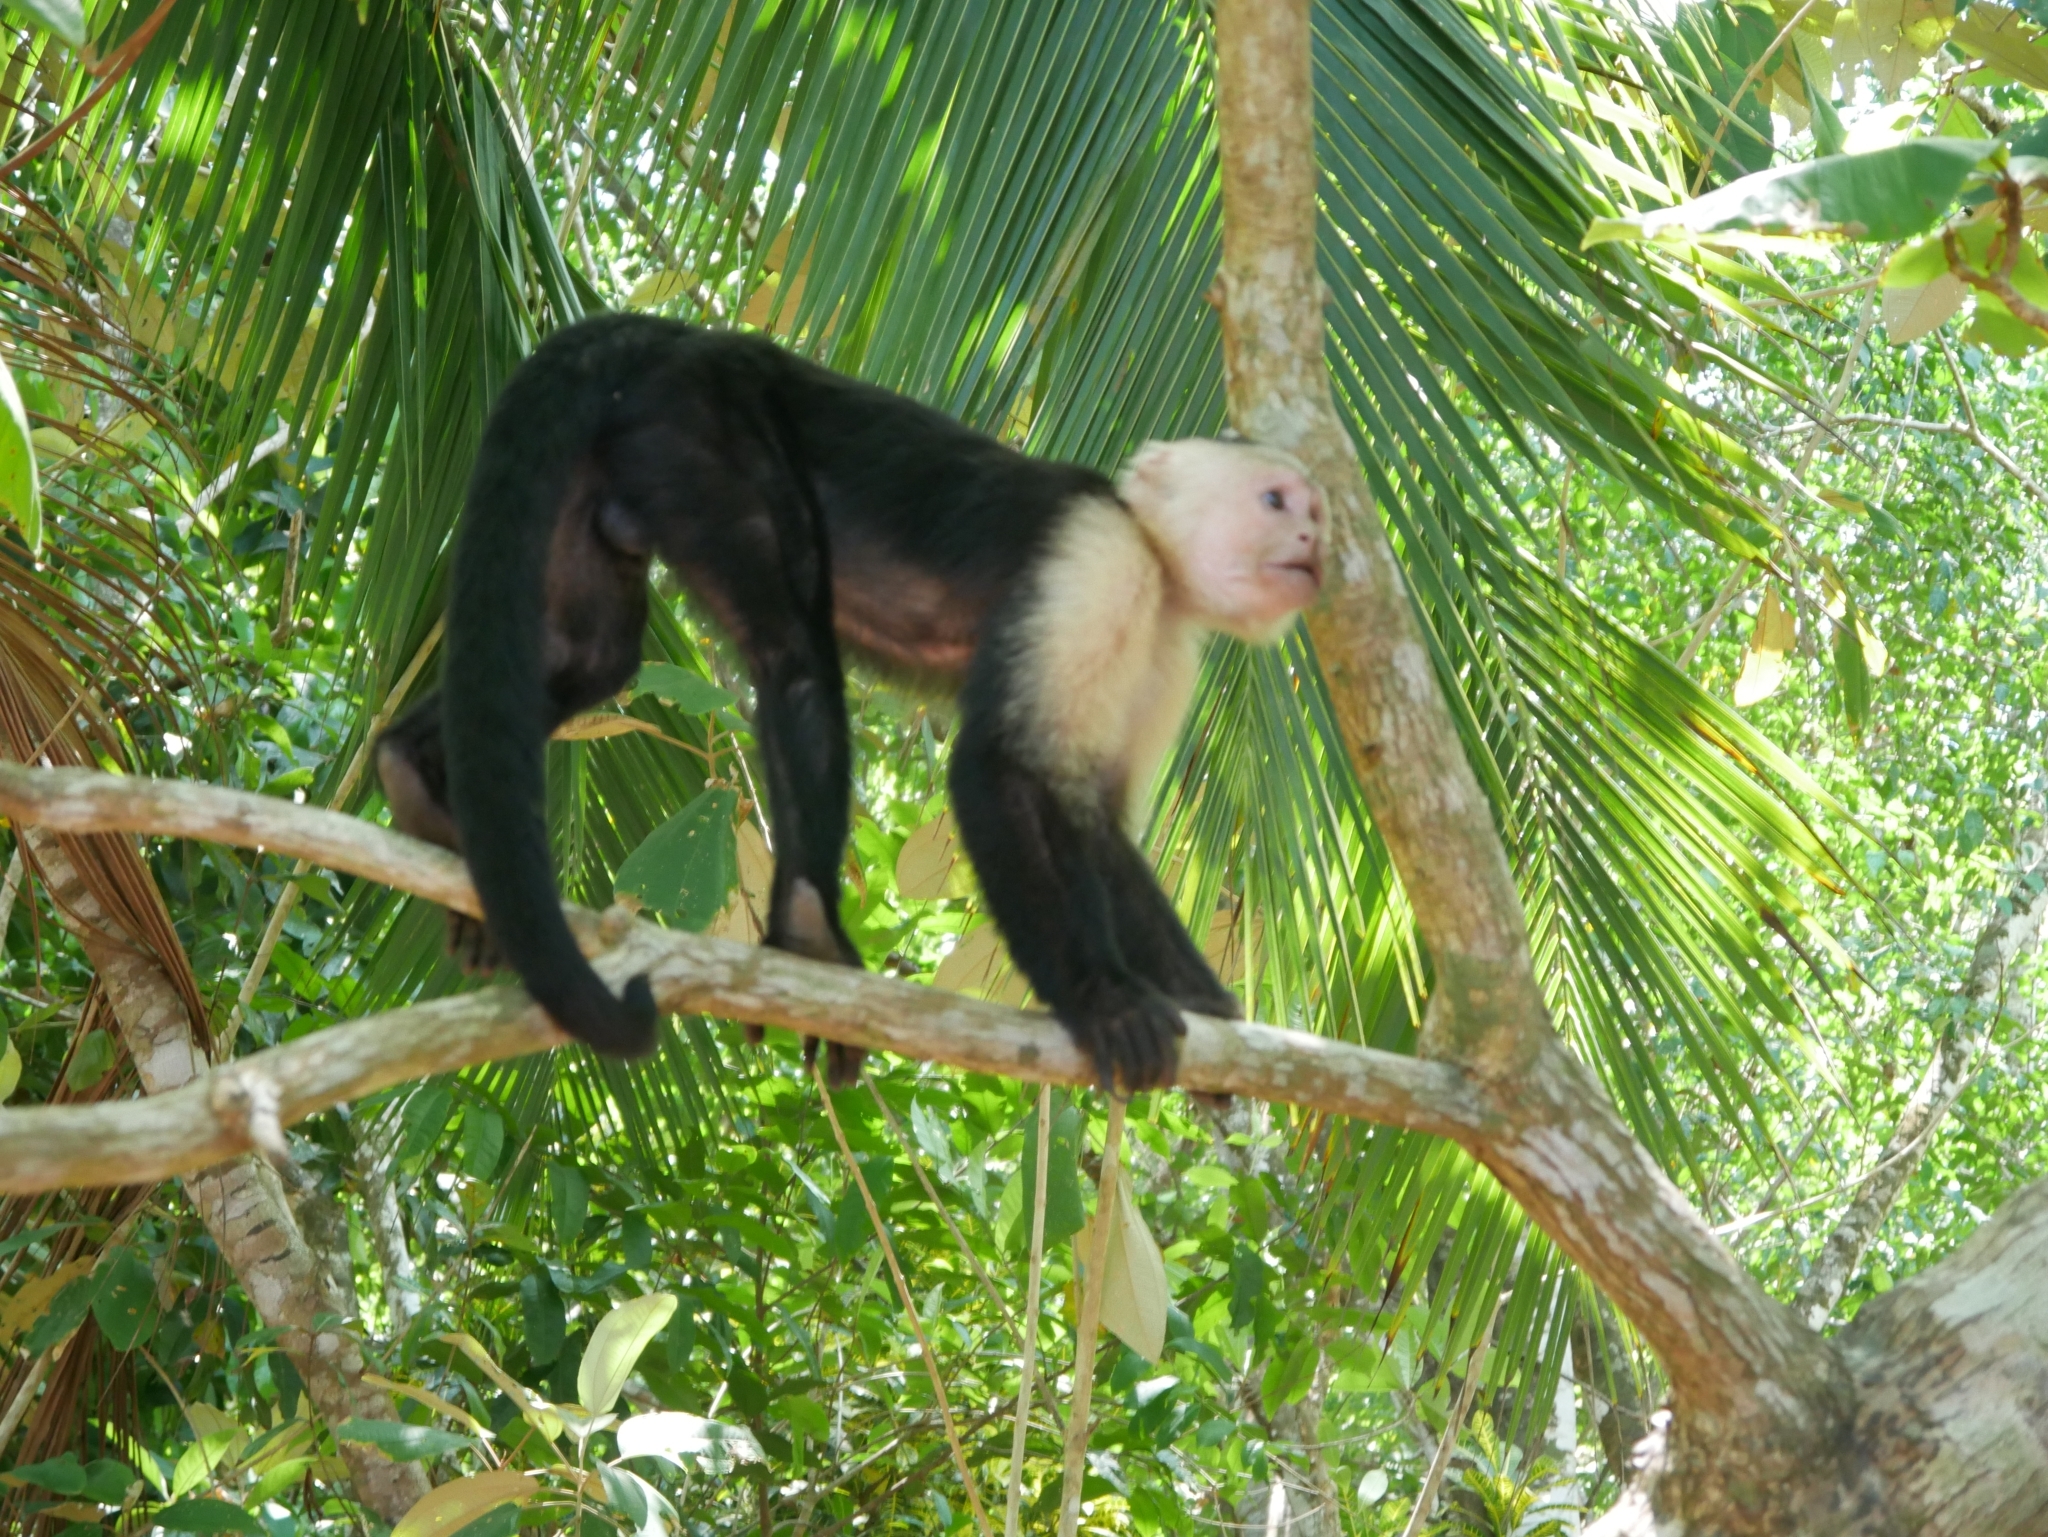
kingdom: Animalia
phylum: Chordata
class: Mammalia
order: Primates
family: Cebidae
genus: Cebus
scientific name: Cebus imitator
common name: Panamanian white-faced capuchin
